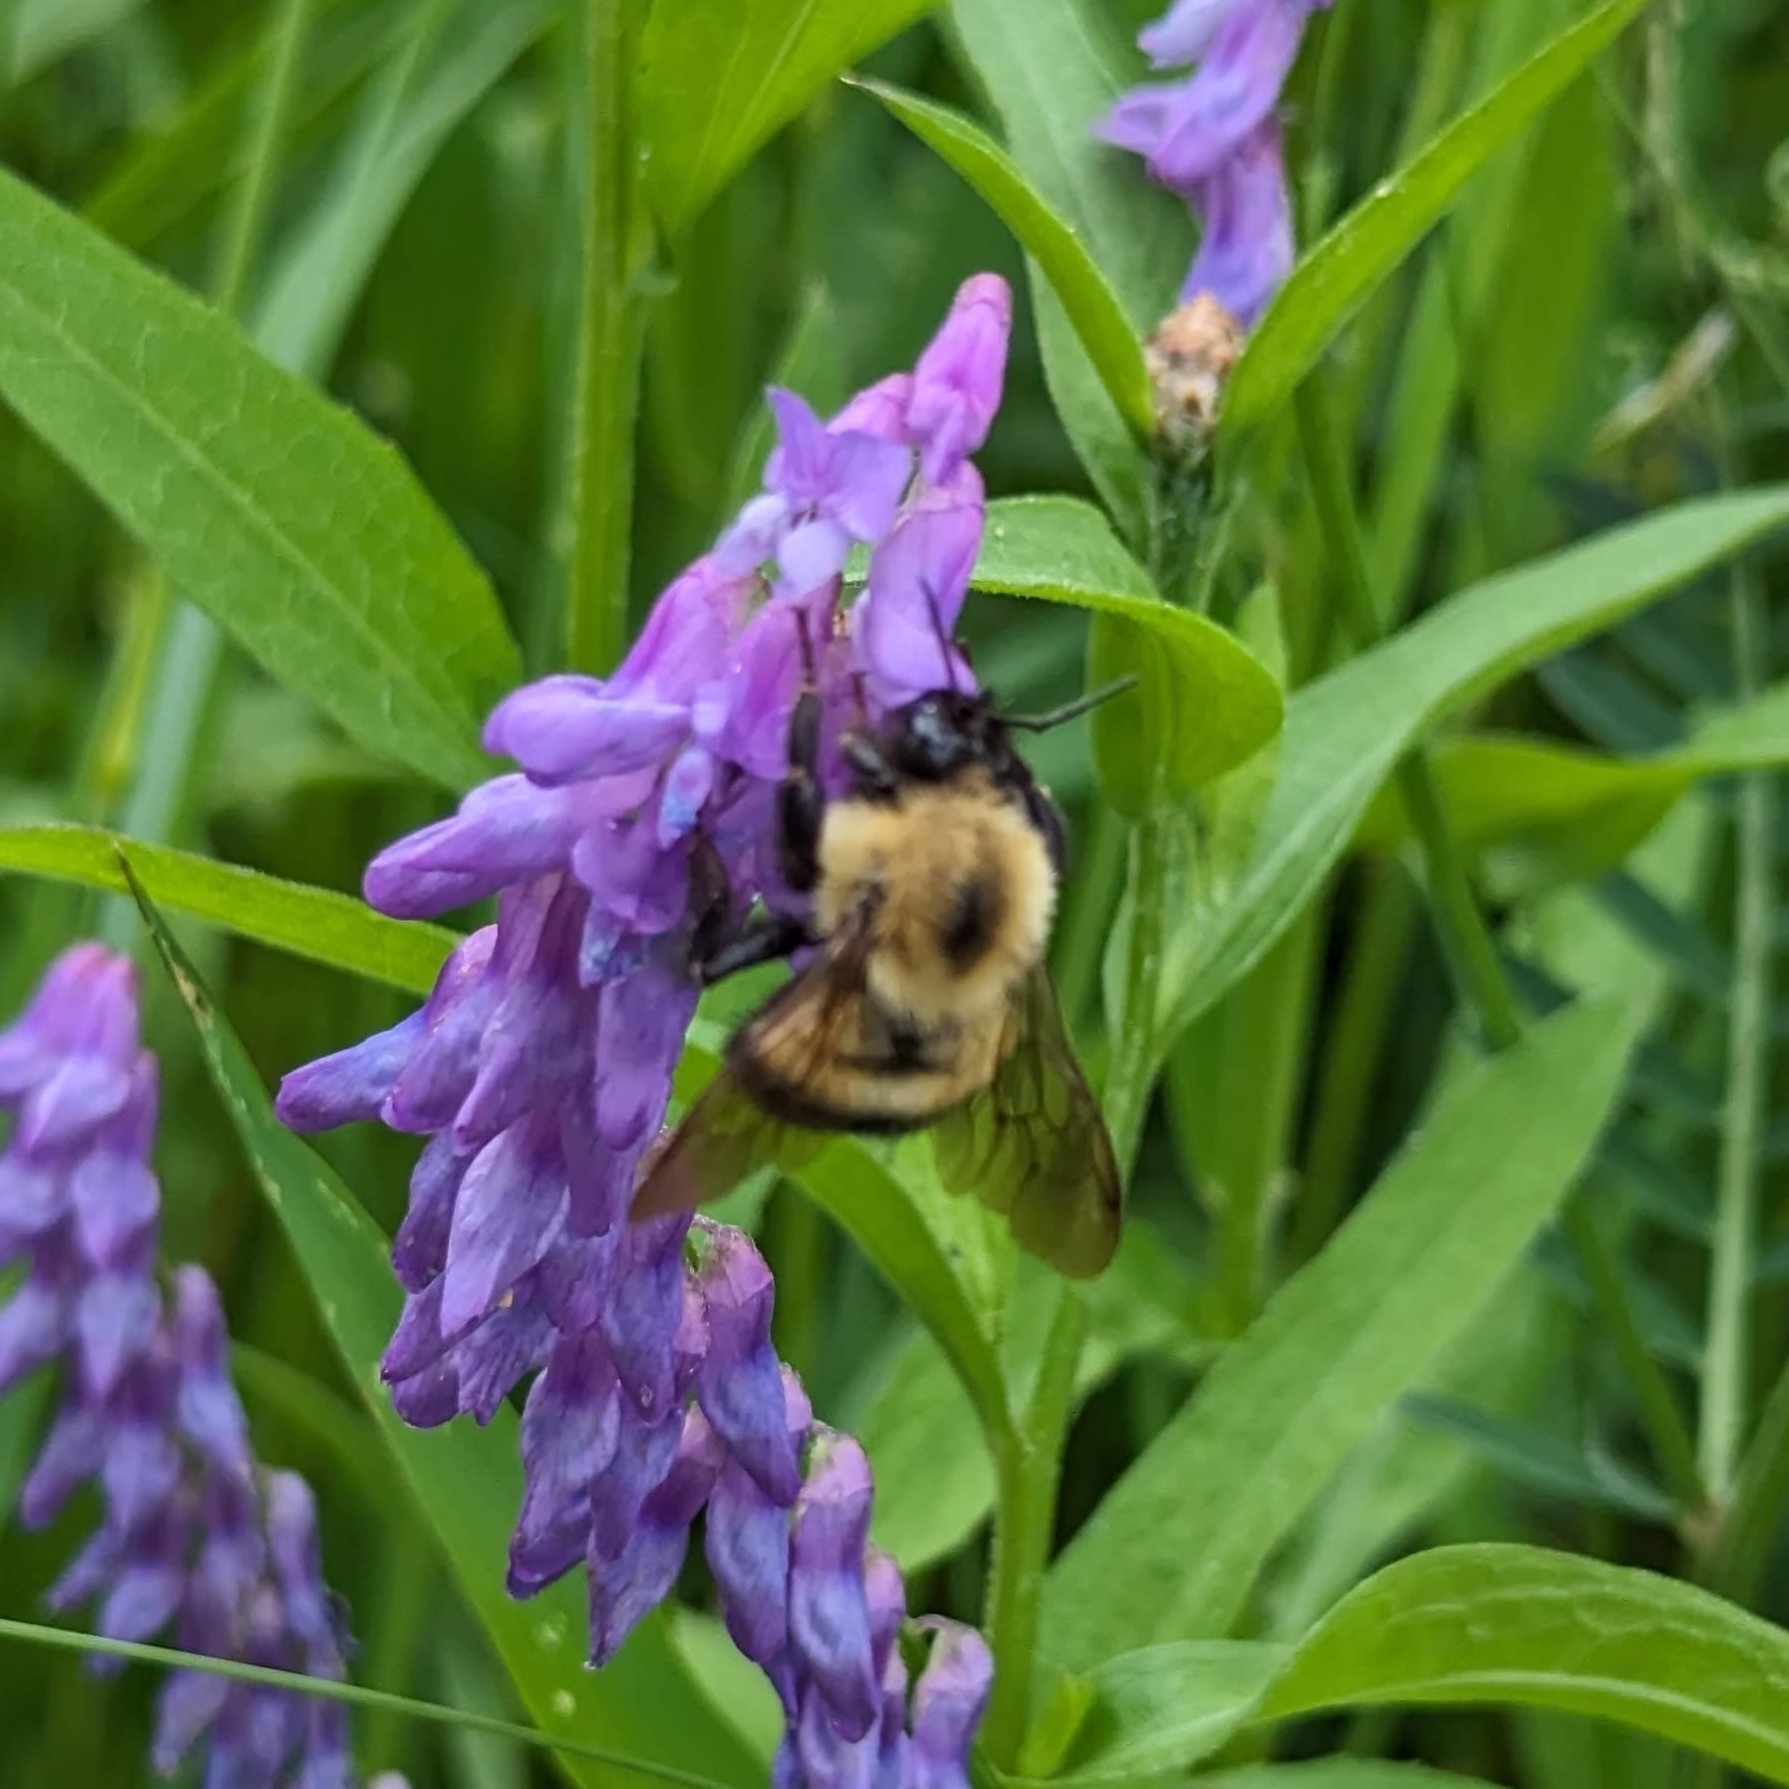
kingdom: Animalia
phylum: Arthropoda
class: Insecta
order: Hymenoptera
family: Apidae
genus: Pyrobombus
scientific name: Pyrobombus
